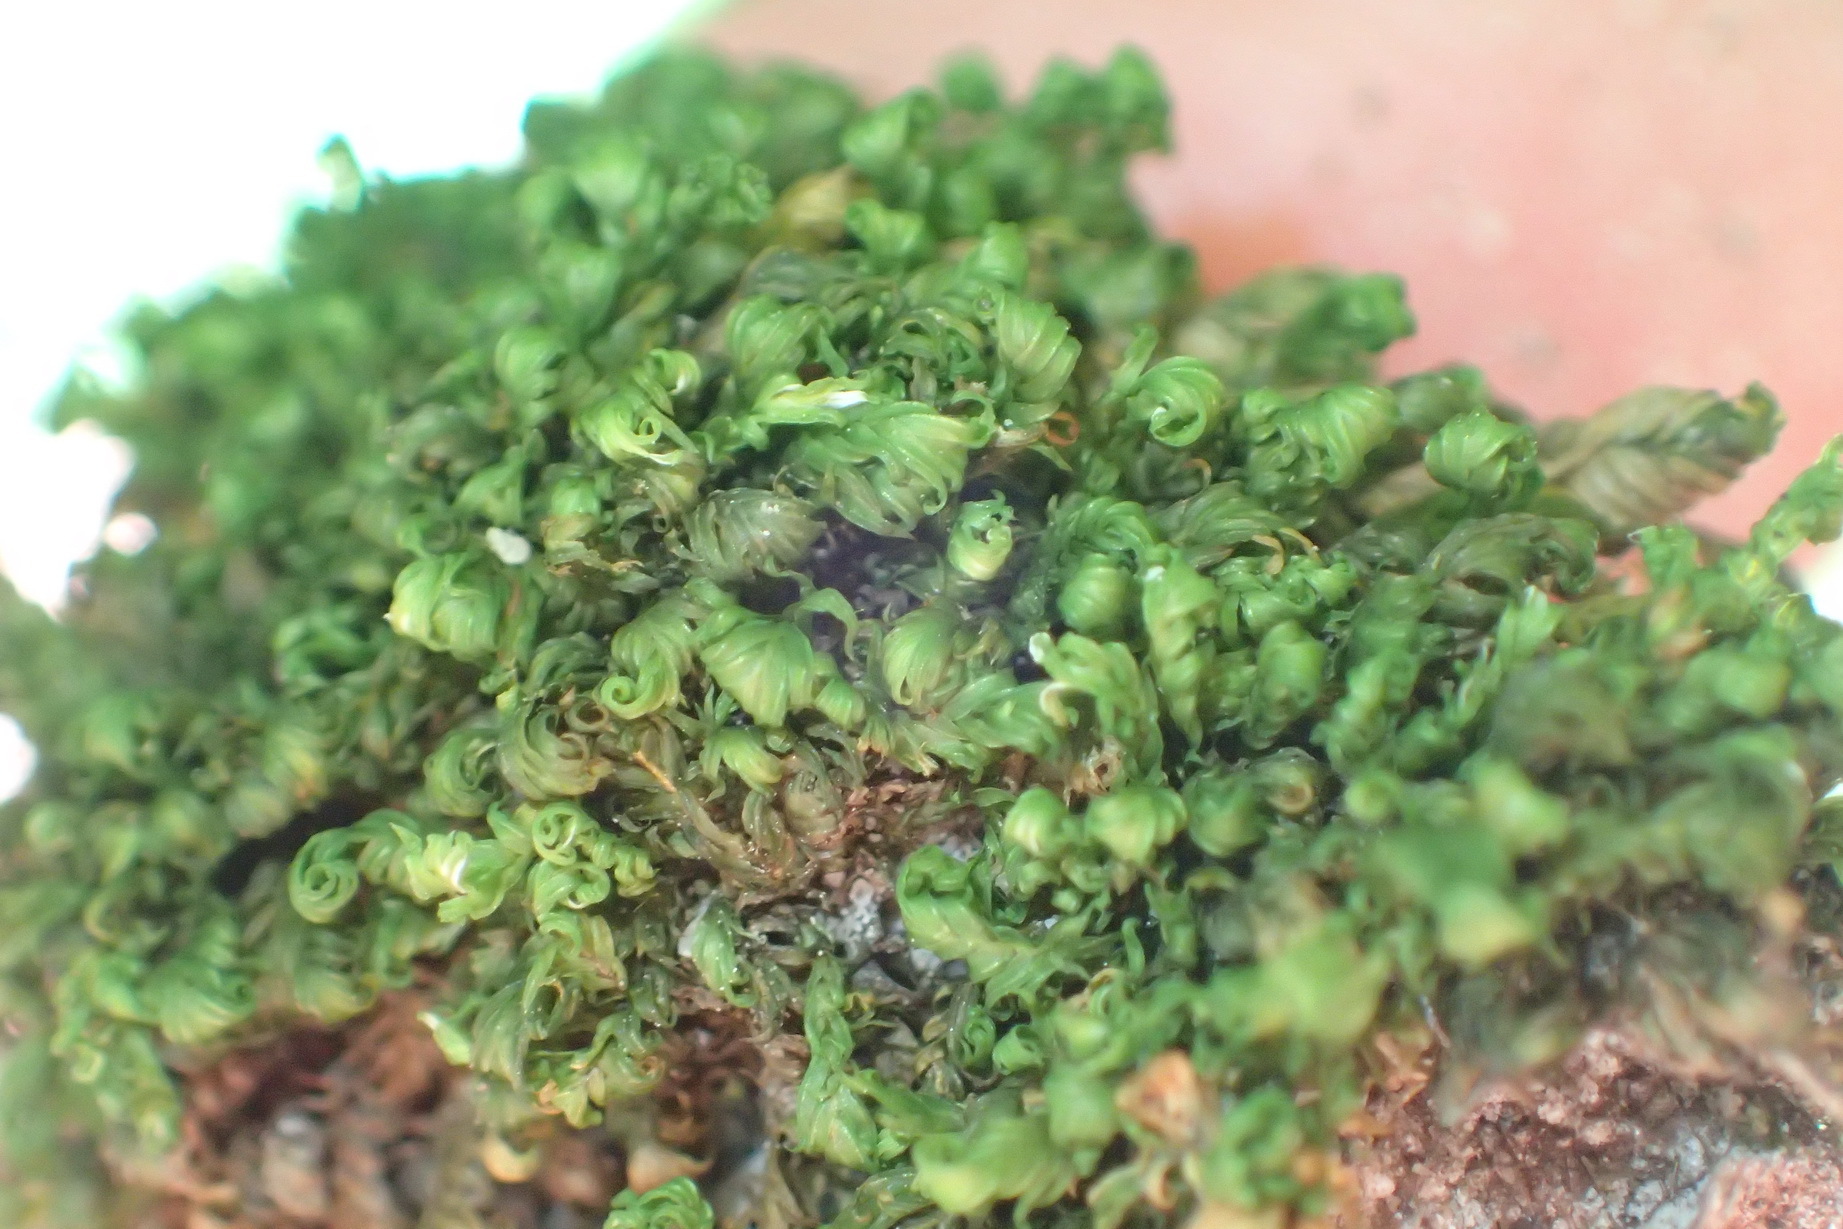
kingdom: Plantae
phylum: Bryophyta
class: Bryopsida
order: Dicranales
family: Fissidentaceae
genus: Fissidens
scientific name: Fissidens ovatus
